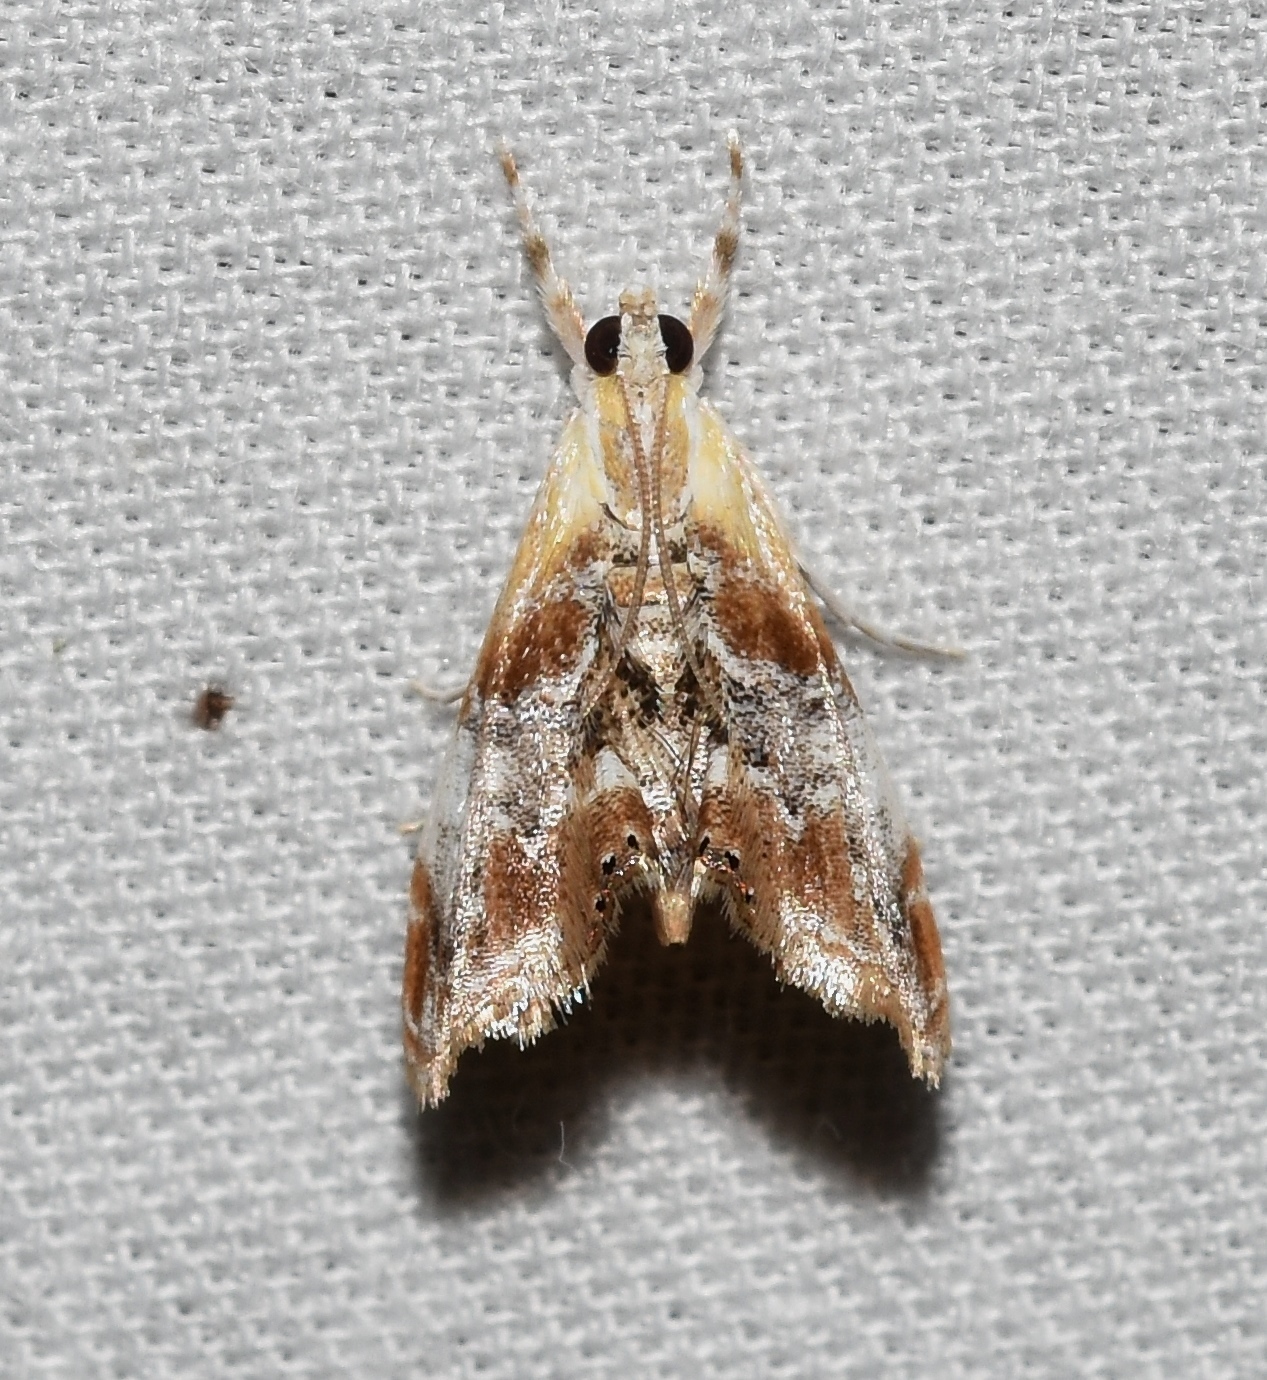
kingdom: Animalia
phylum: Arthropoda
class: Insecta
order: Lepidoptera
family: Crambidae
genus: Dicymolomia
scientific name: Dicymolomia julianalis
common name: Julia's dicymolomia moth
